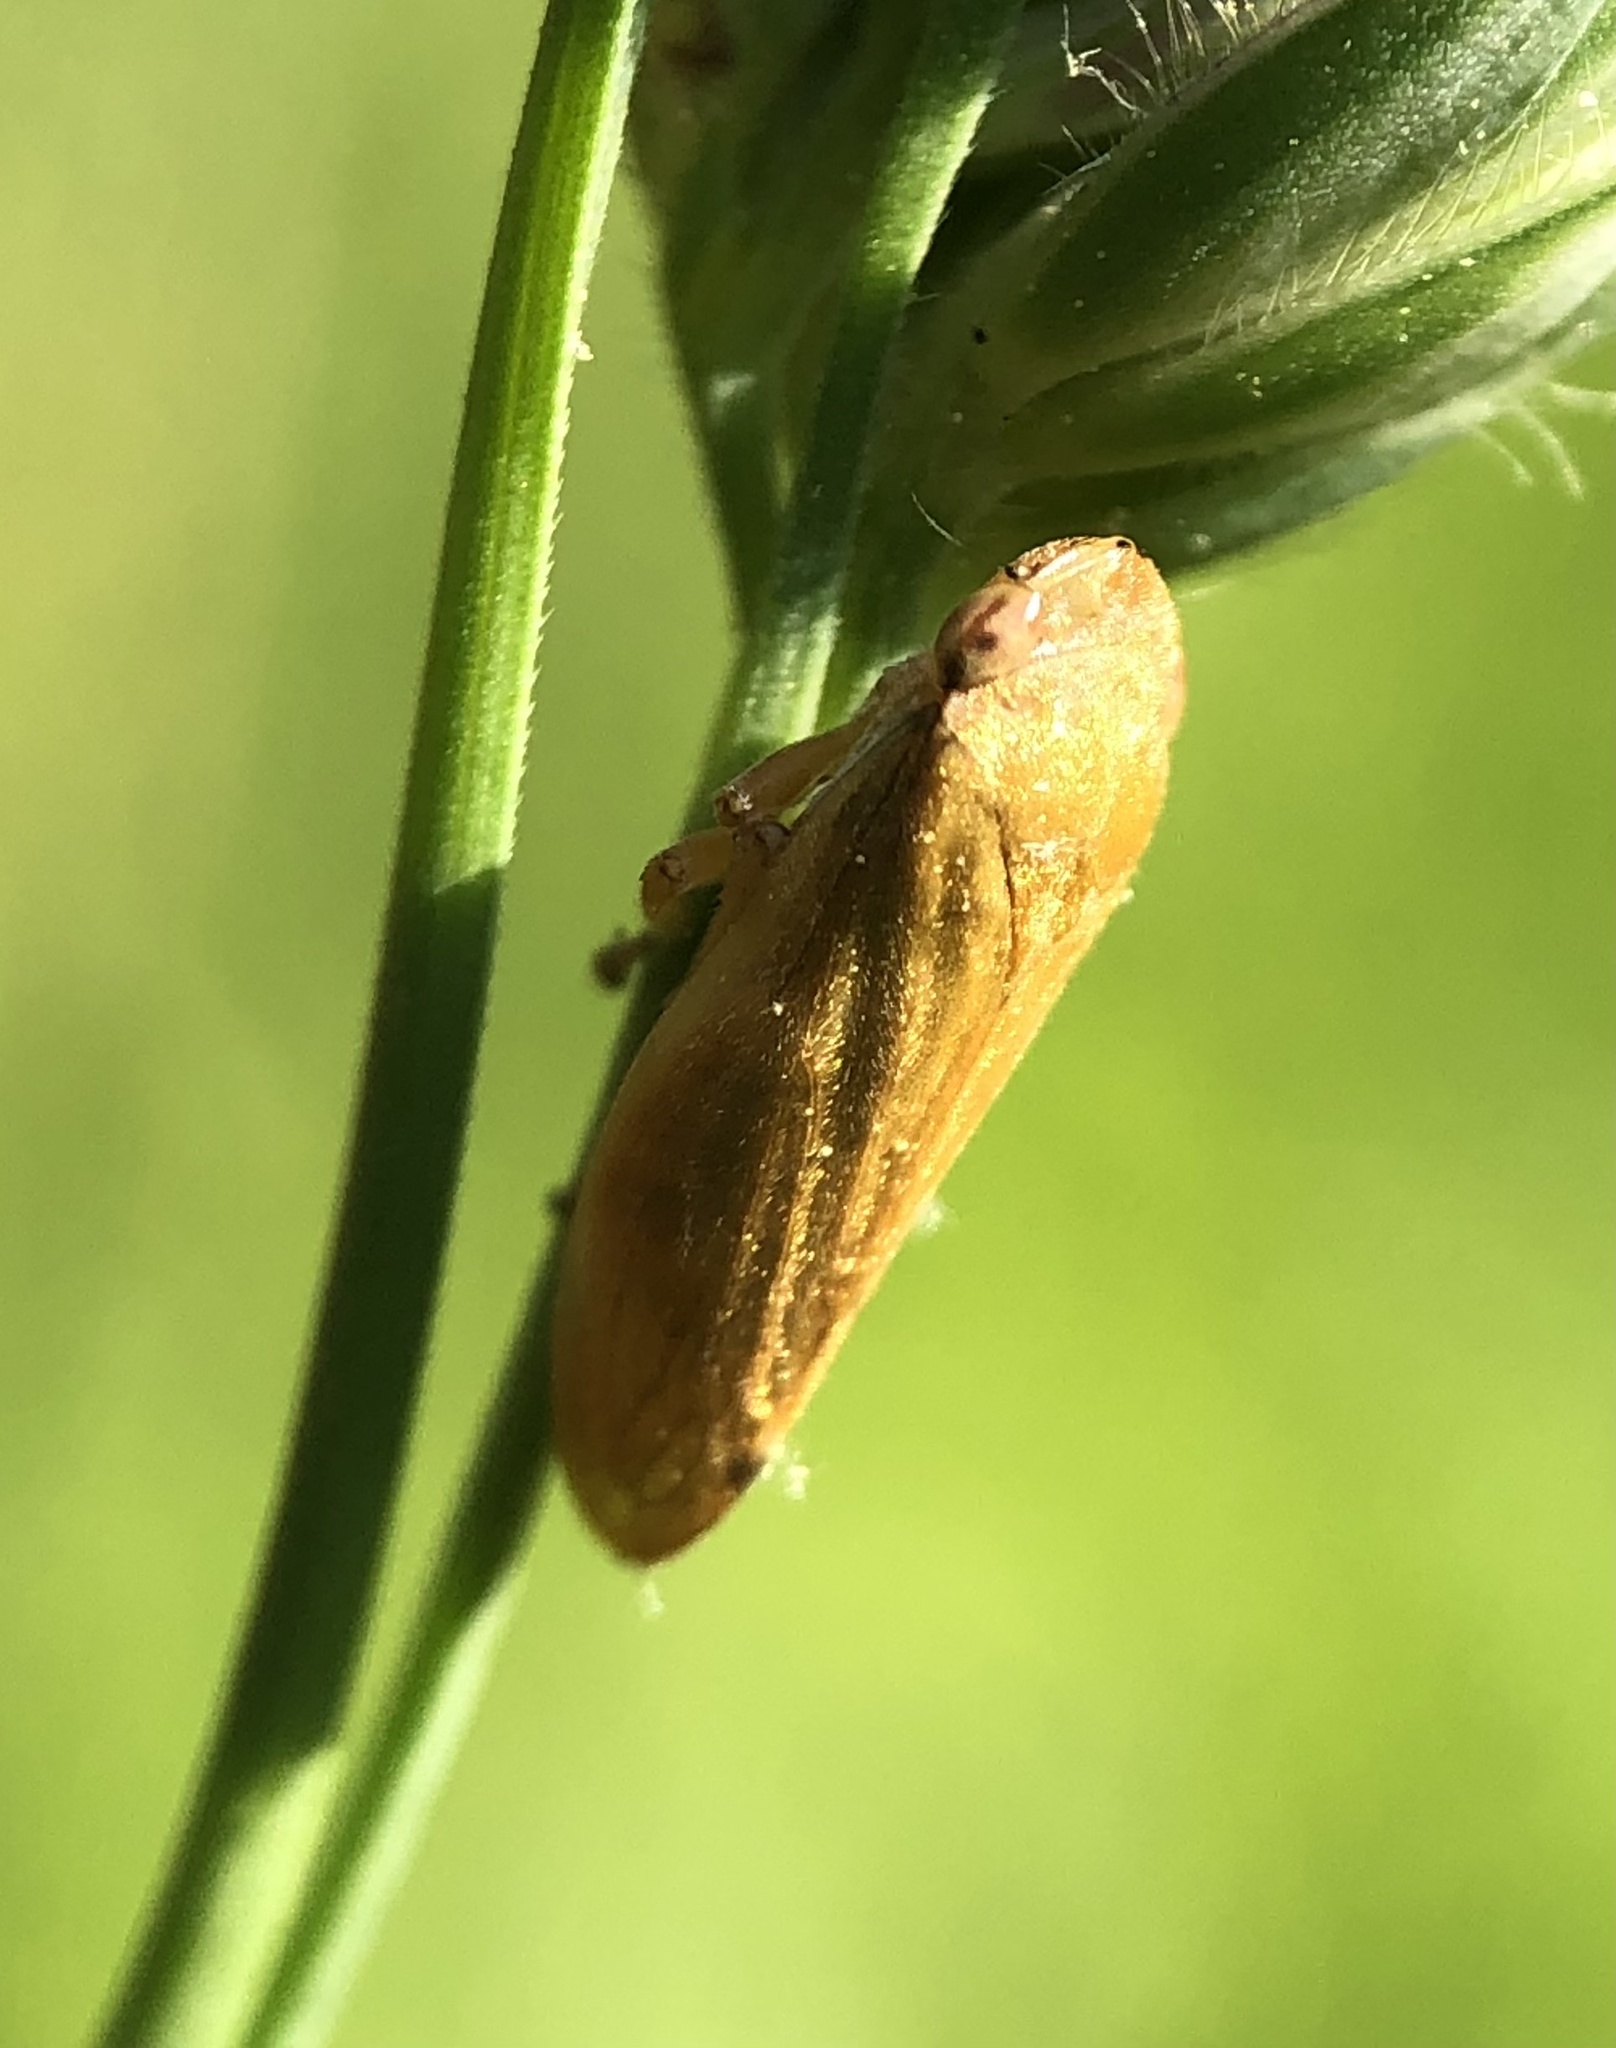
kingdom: Animalia
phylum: Arthropoda
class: Insecta
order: Hemiptera
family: Aphrophoridae
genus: Philaenus
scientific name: Philaenus spumarius
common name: Meadow spittlebug
